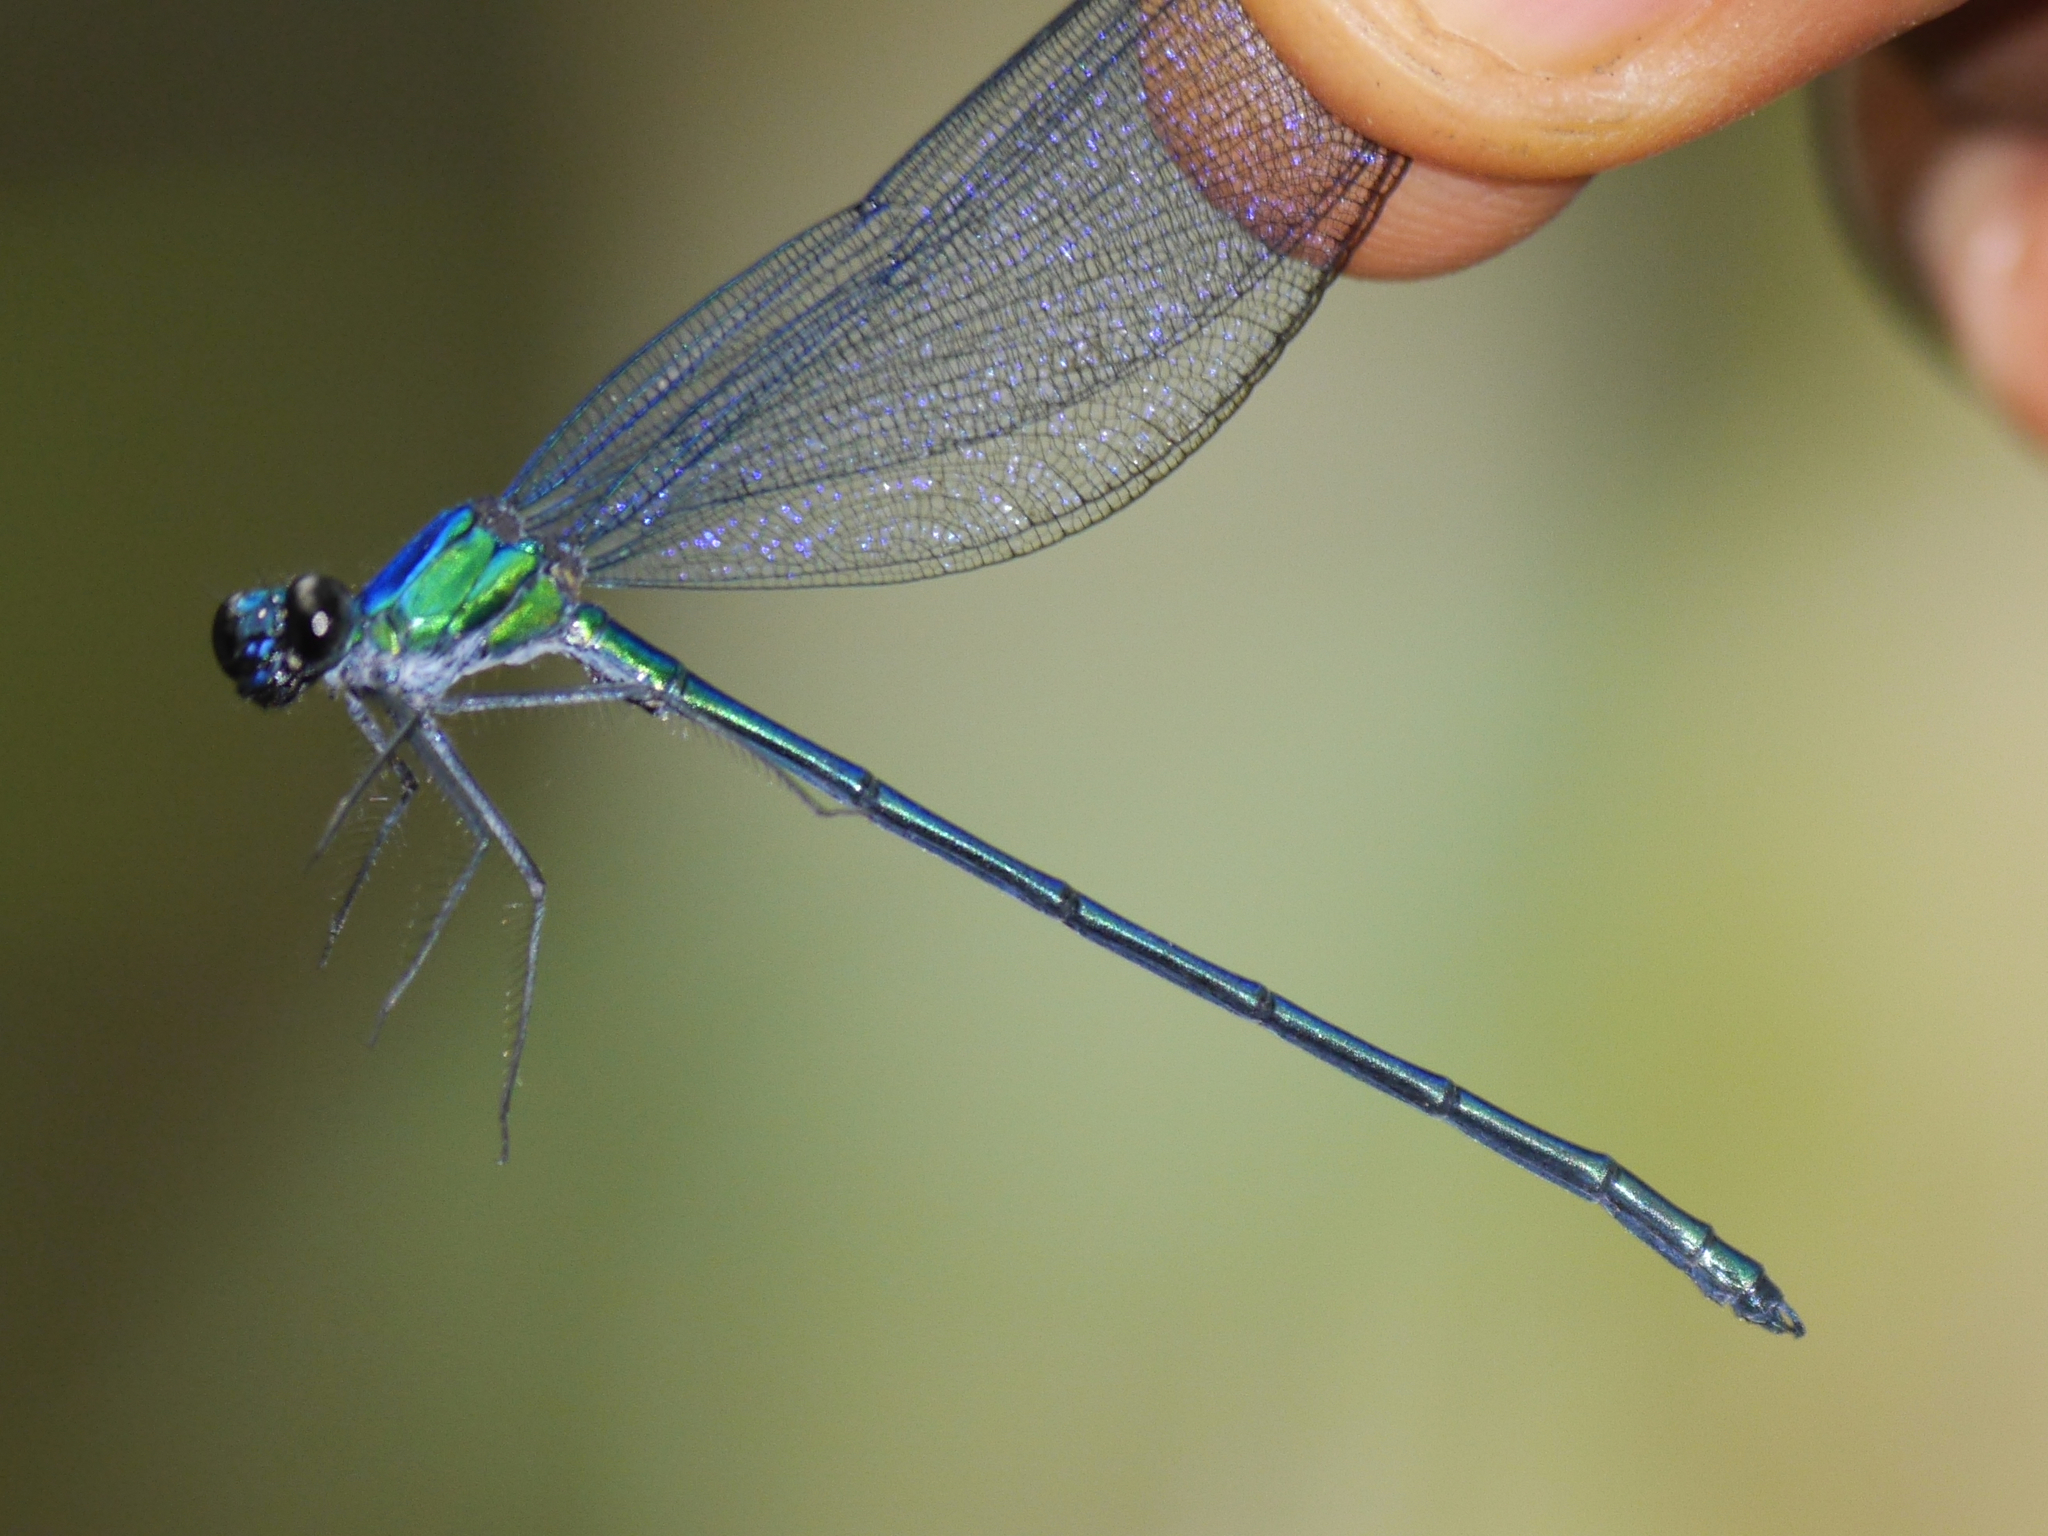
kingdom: Animalia
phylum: Arthropoda
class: Insecta
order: Odonata
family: Calopterygidae
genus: Umma
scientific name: Umma cincta
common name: Broad-winged sparklewing
